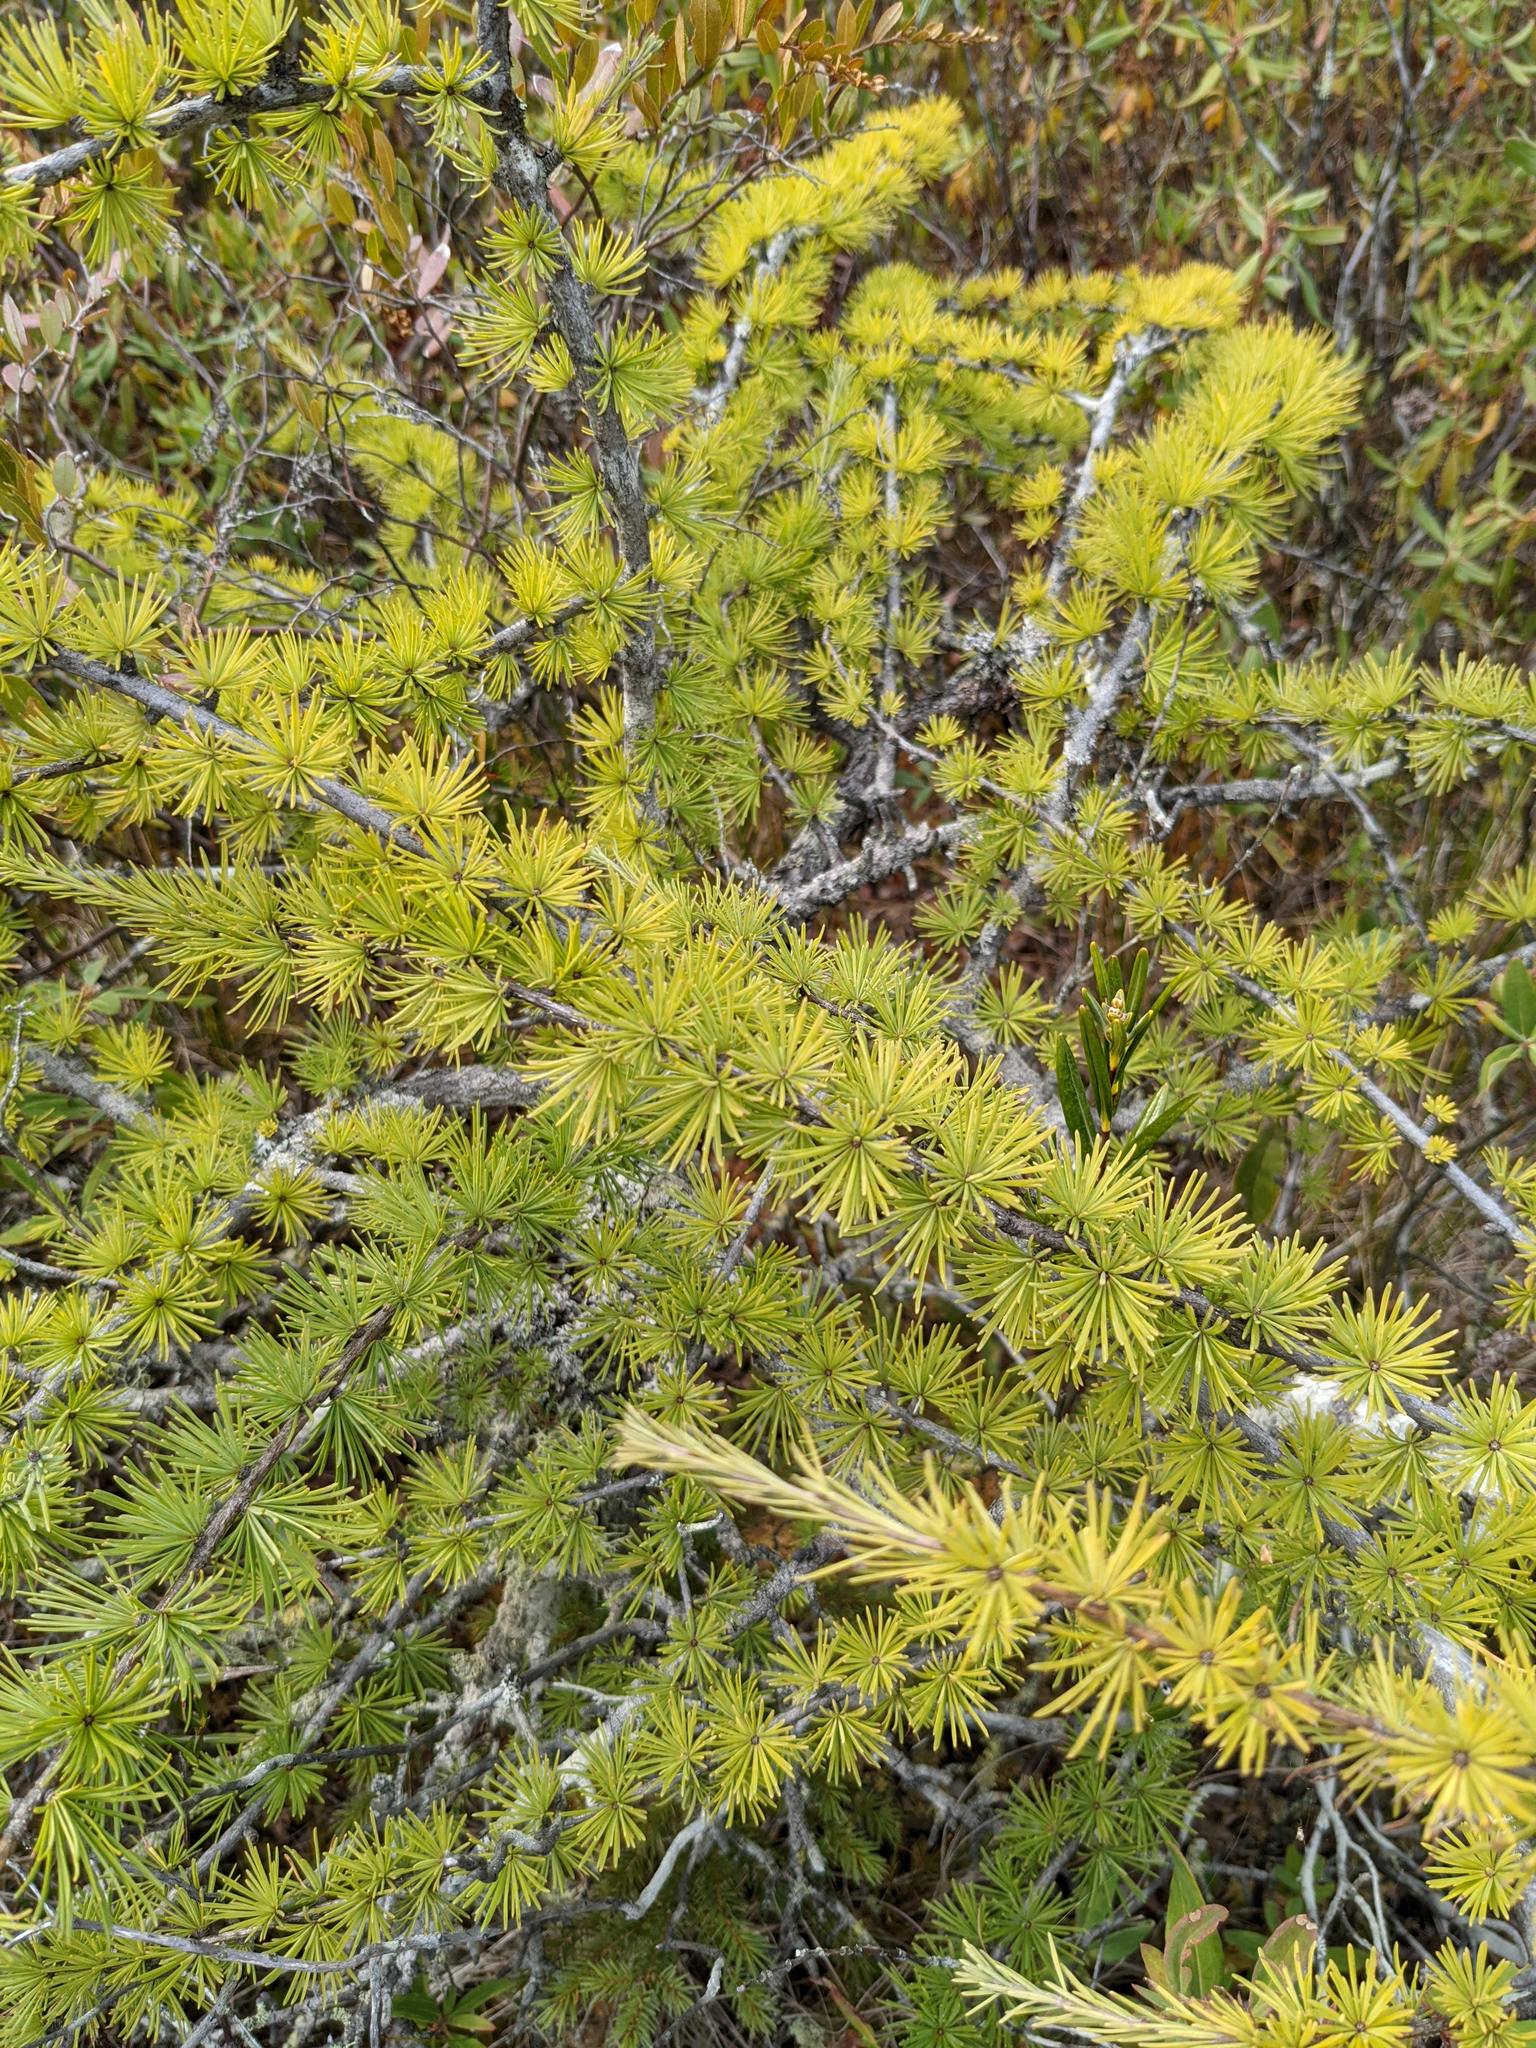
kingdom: Plantae
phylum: Tracheophyta
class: Pinopsida
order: Pinales
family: Pinaceae
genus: Larix
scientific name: Larix laricina
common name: American larch
